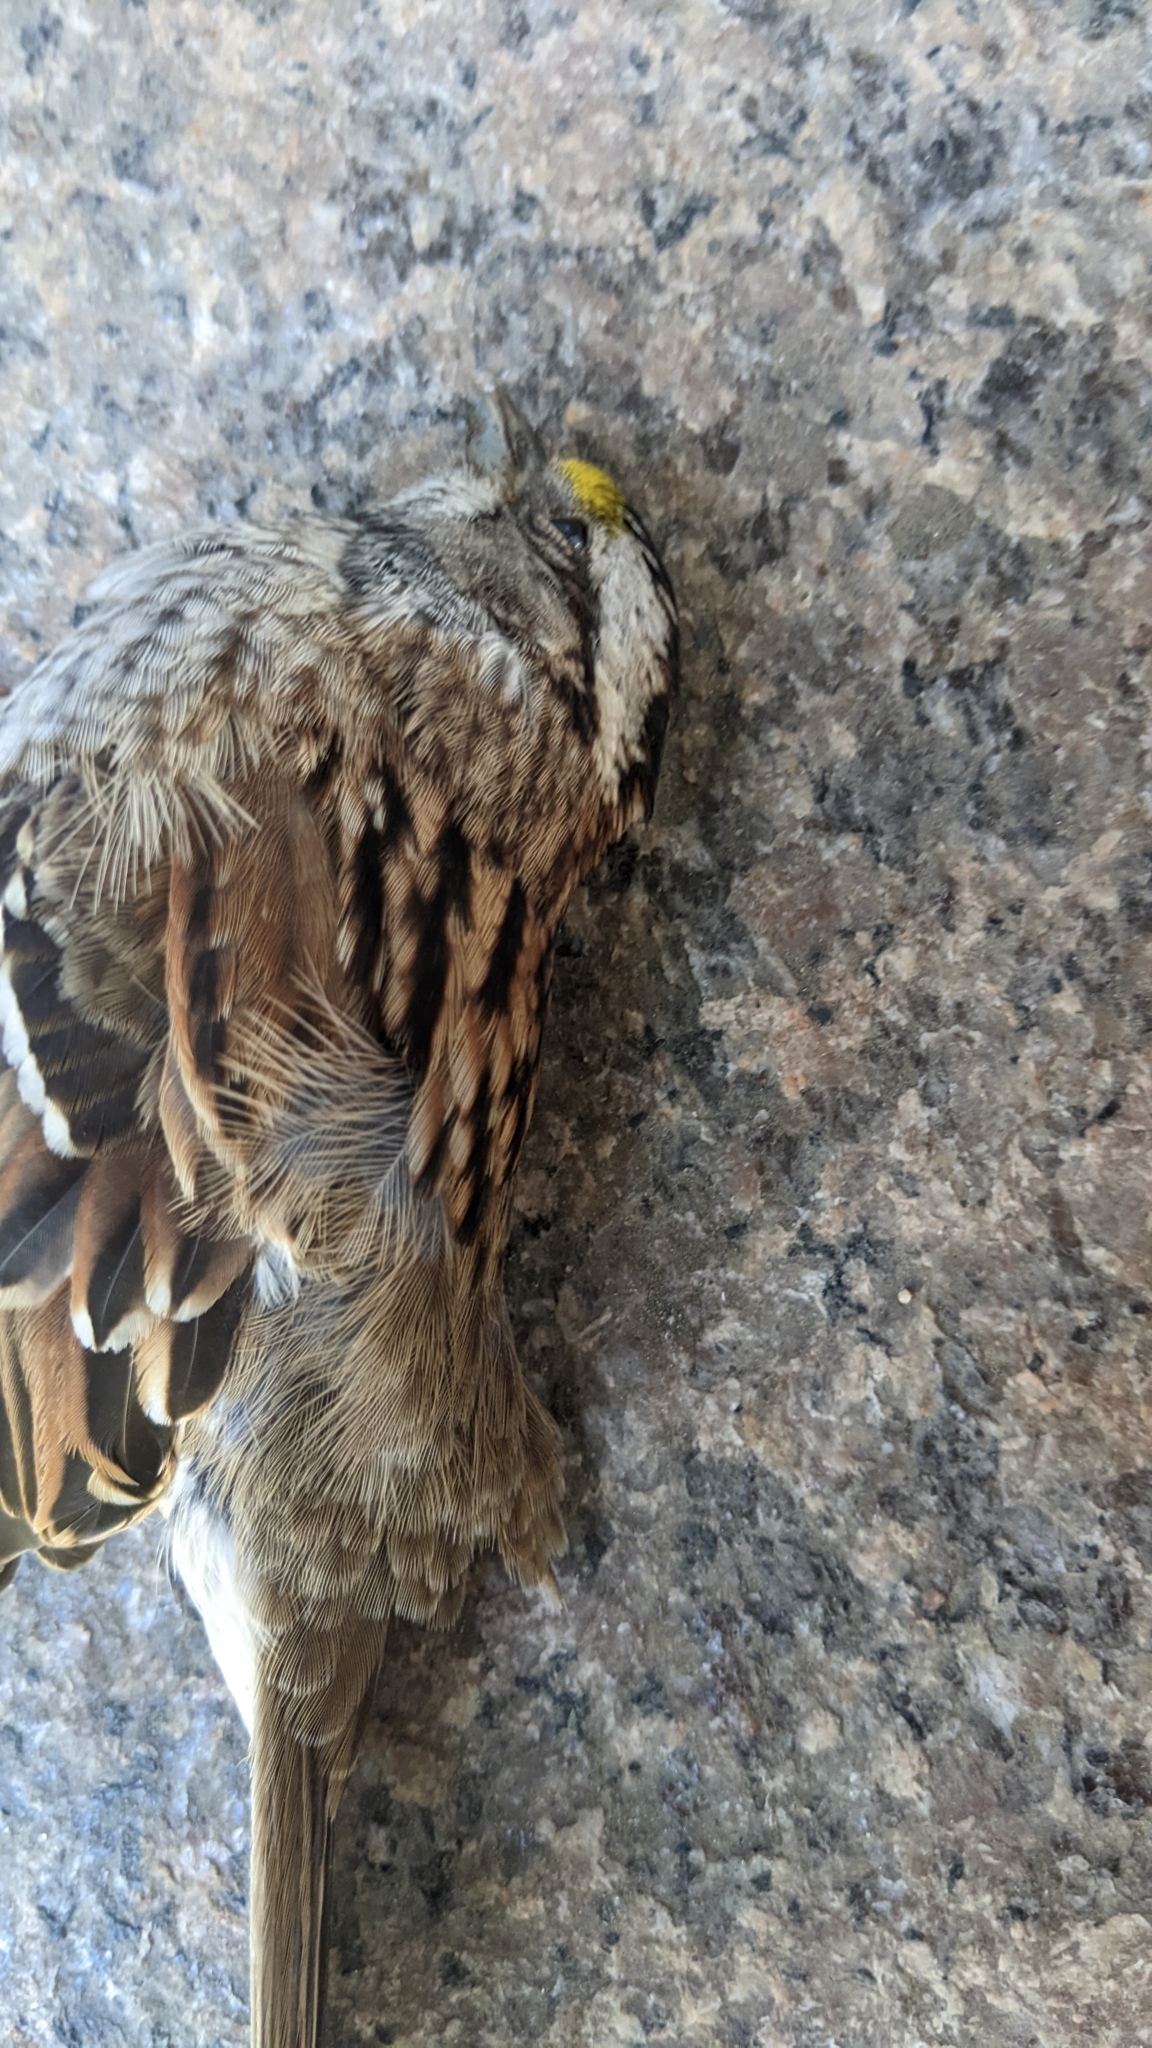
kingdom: Animalia
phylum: Chordata
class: Aves
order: Passeriformes
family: Passerellidae
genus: Zonotrichia
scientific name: Zonotrichia albicollis
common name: White-throated sparrow
